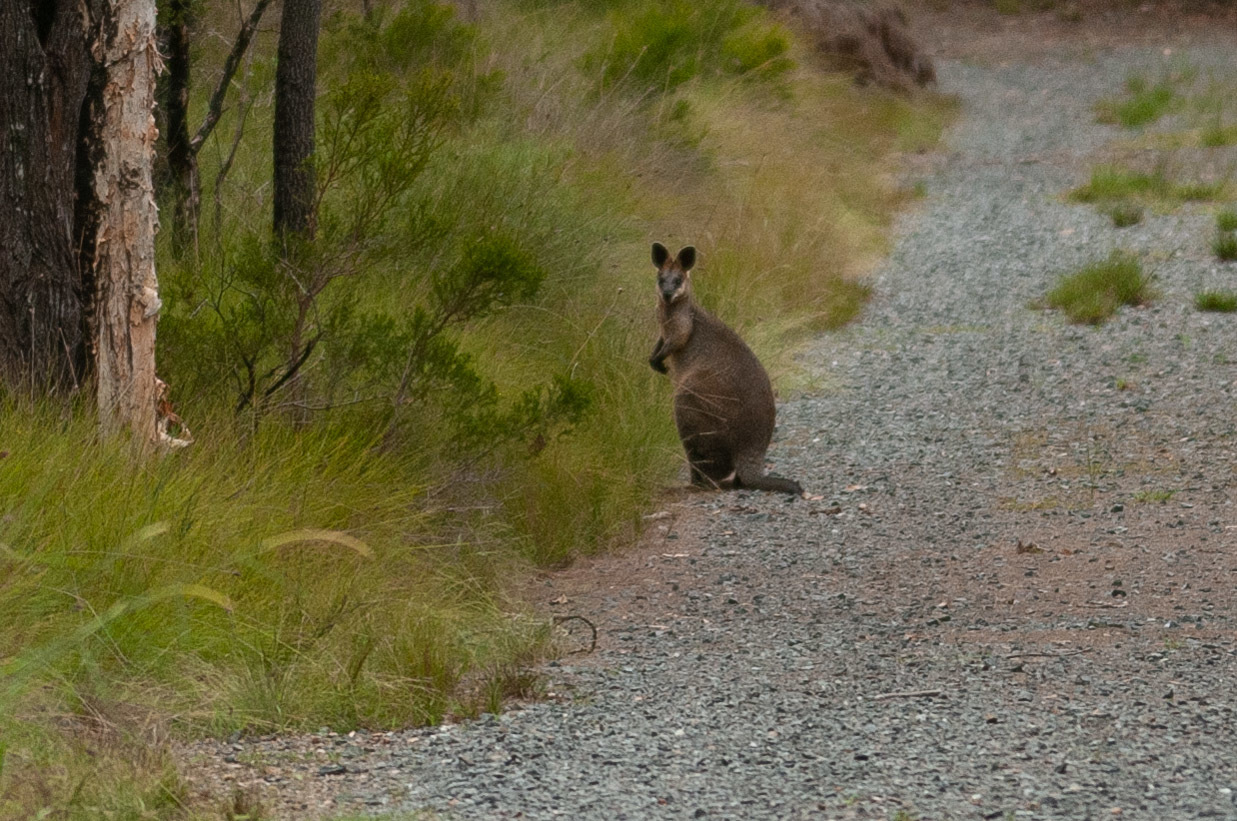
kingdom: Animalia
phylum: Chordata
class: Mammalia
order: Diprotodontia
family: Macropodidae
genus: Wallabia
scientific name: Wallabia bicolor
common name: Swamp wallaby
